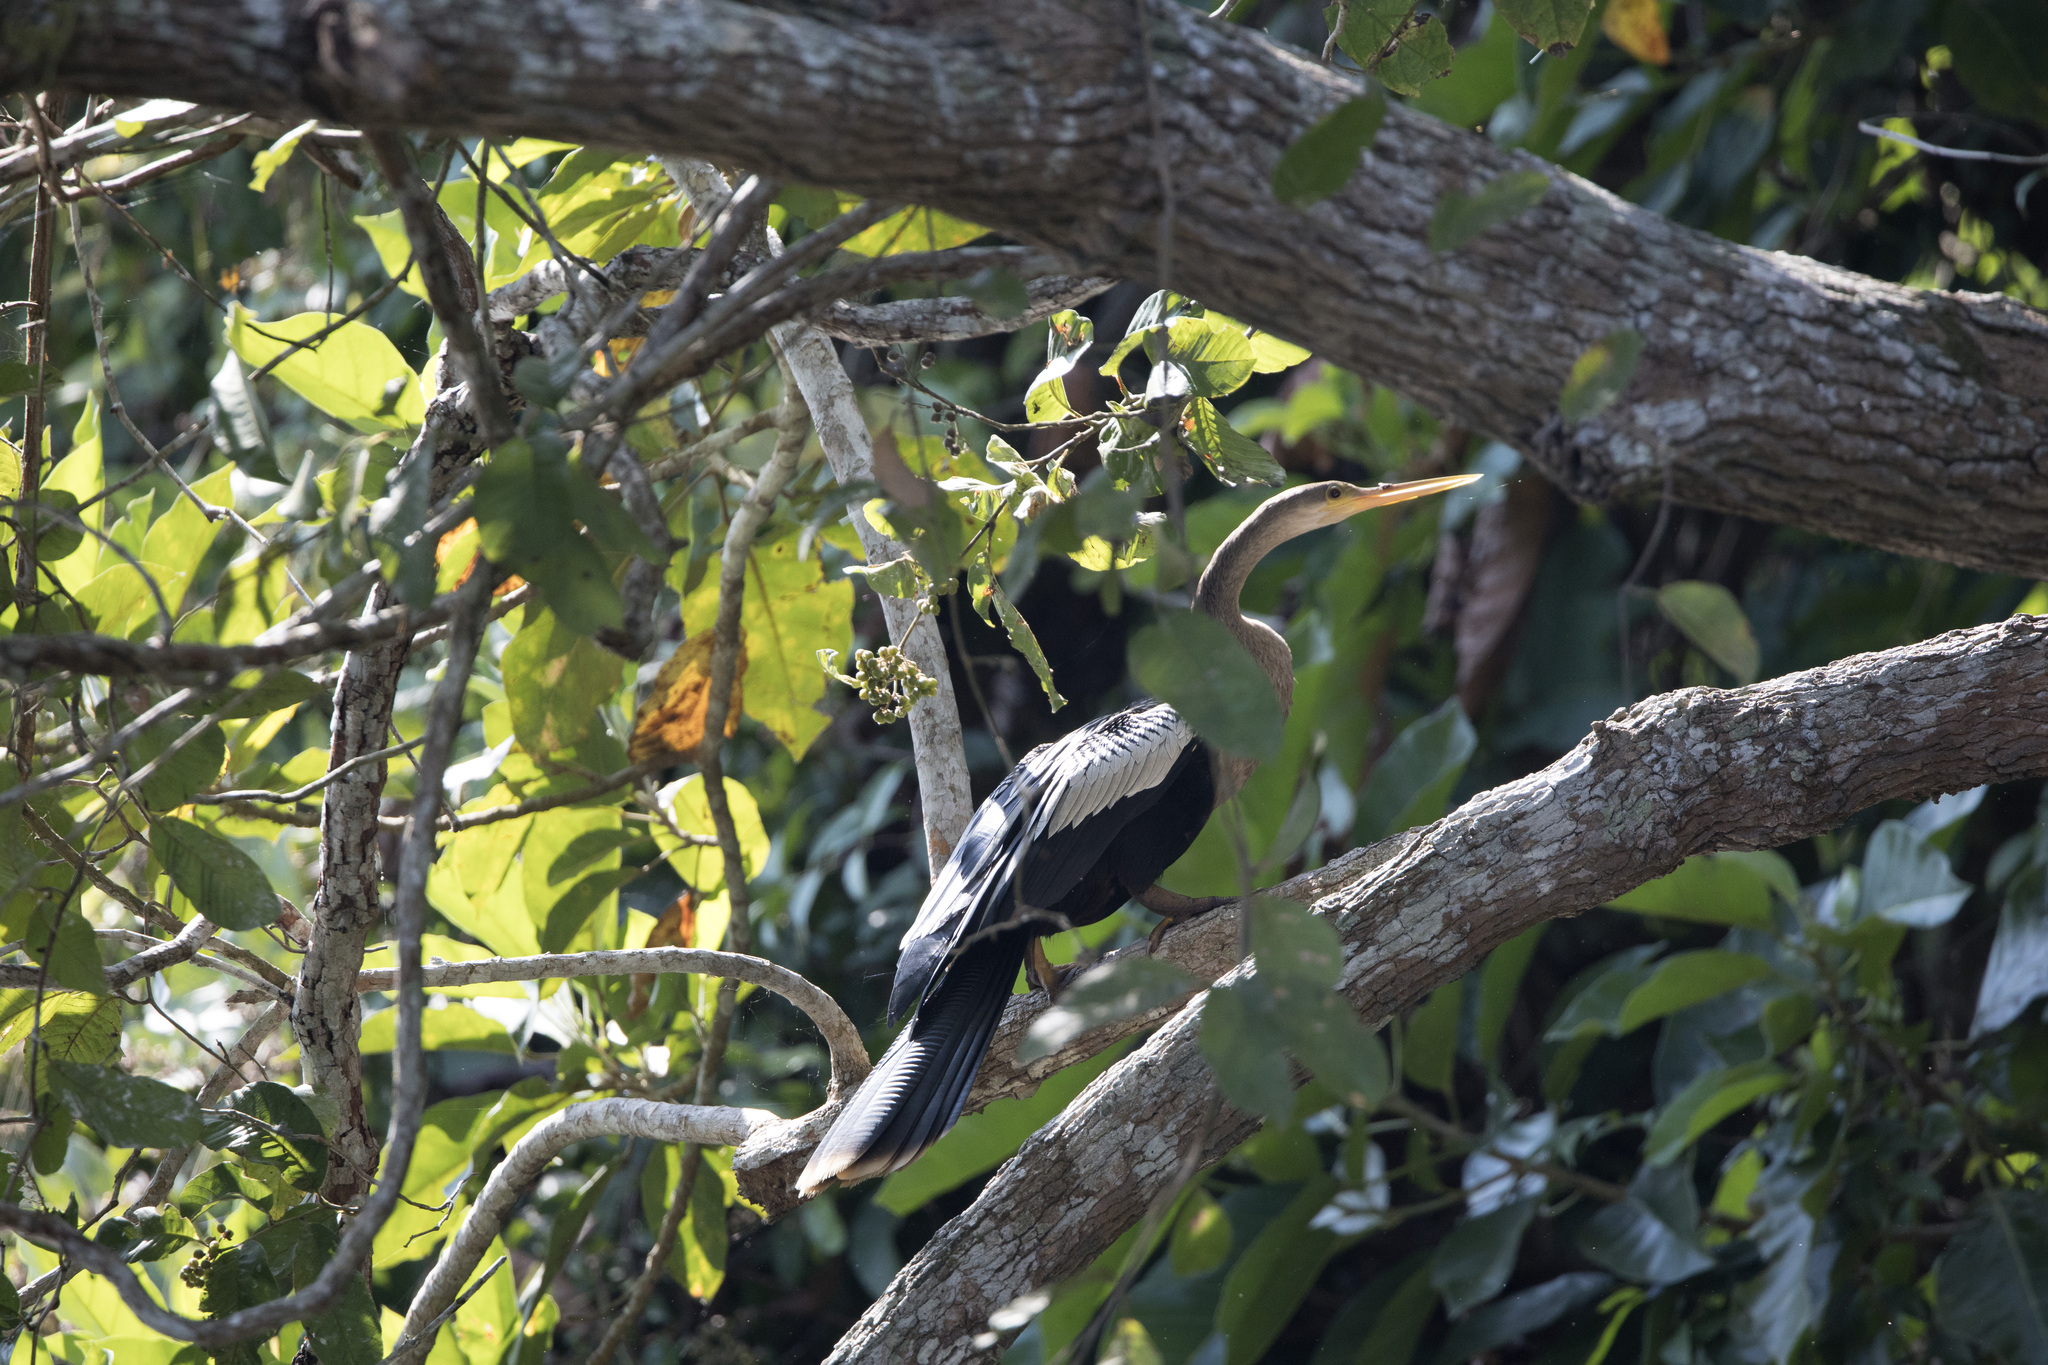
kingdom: Animalia
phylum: Chordata
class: Aves
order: Suliformes
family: Anhingidae
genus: Anhinga
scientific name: Anhinga anhinga
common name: Anhinga
